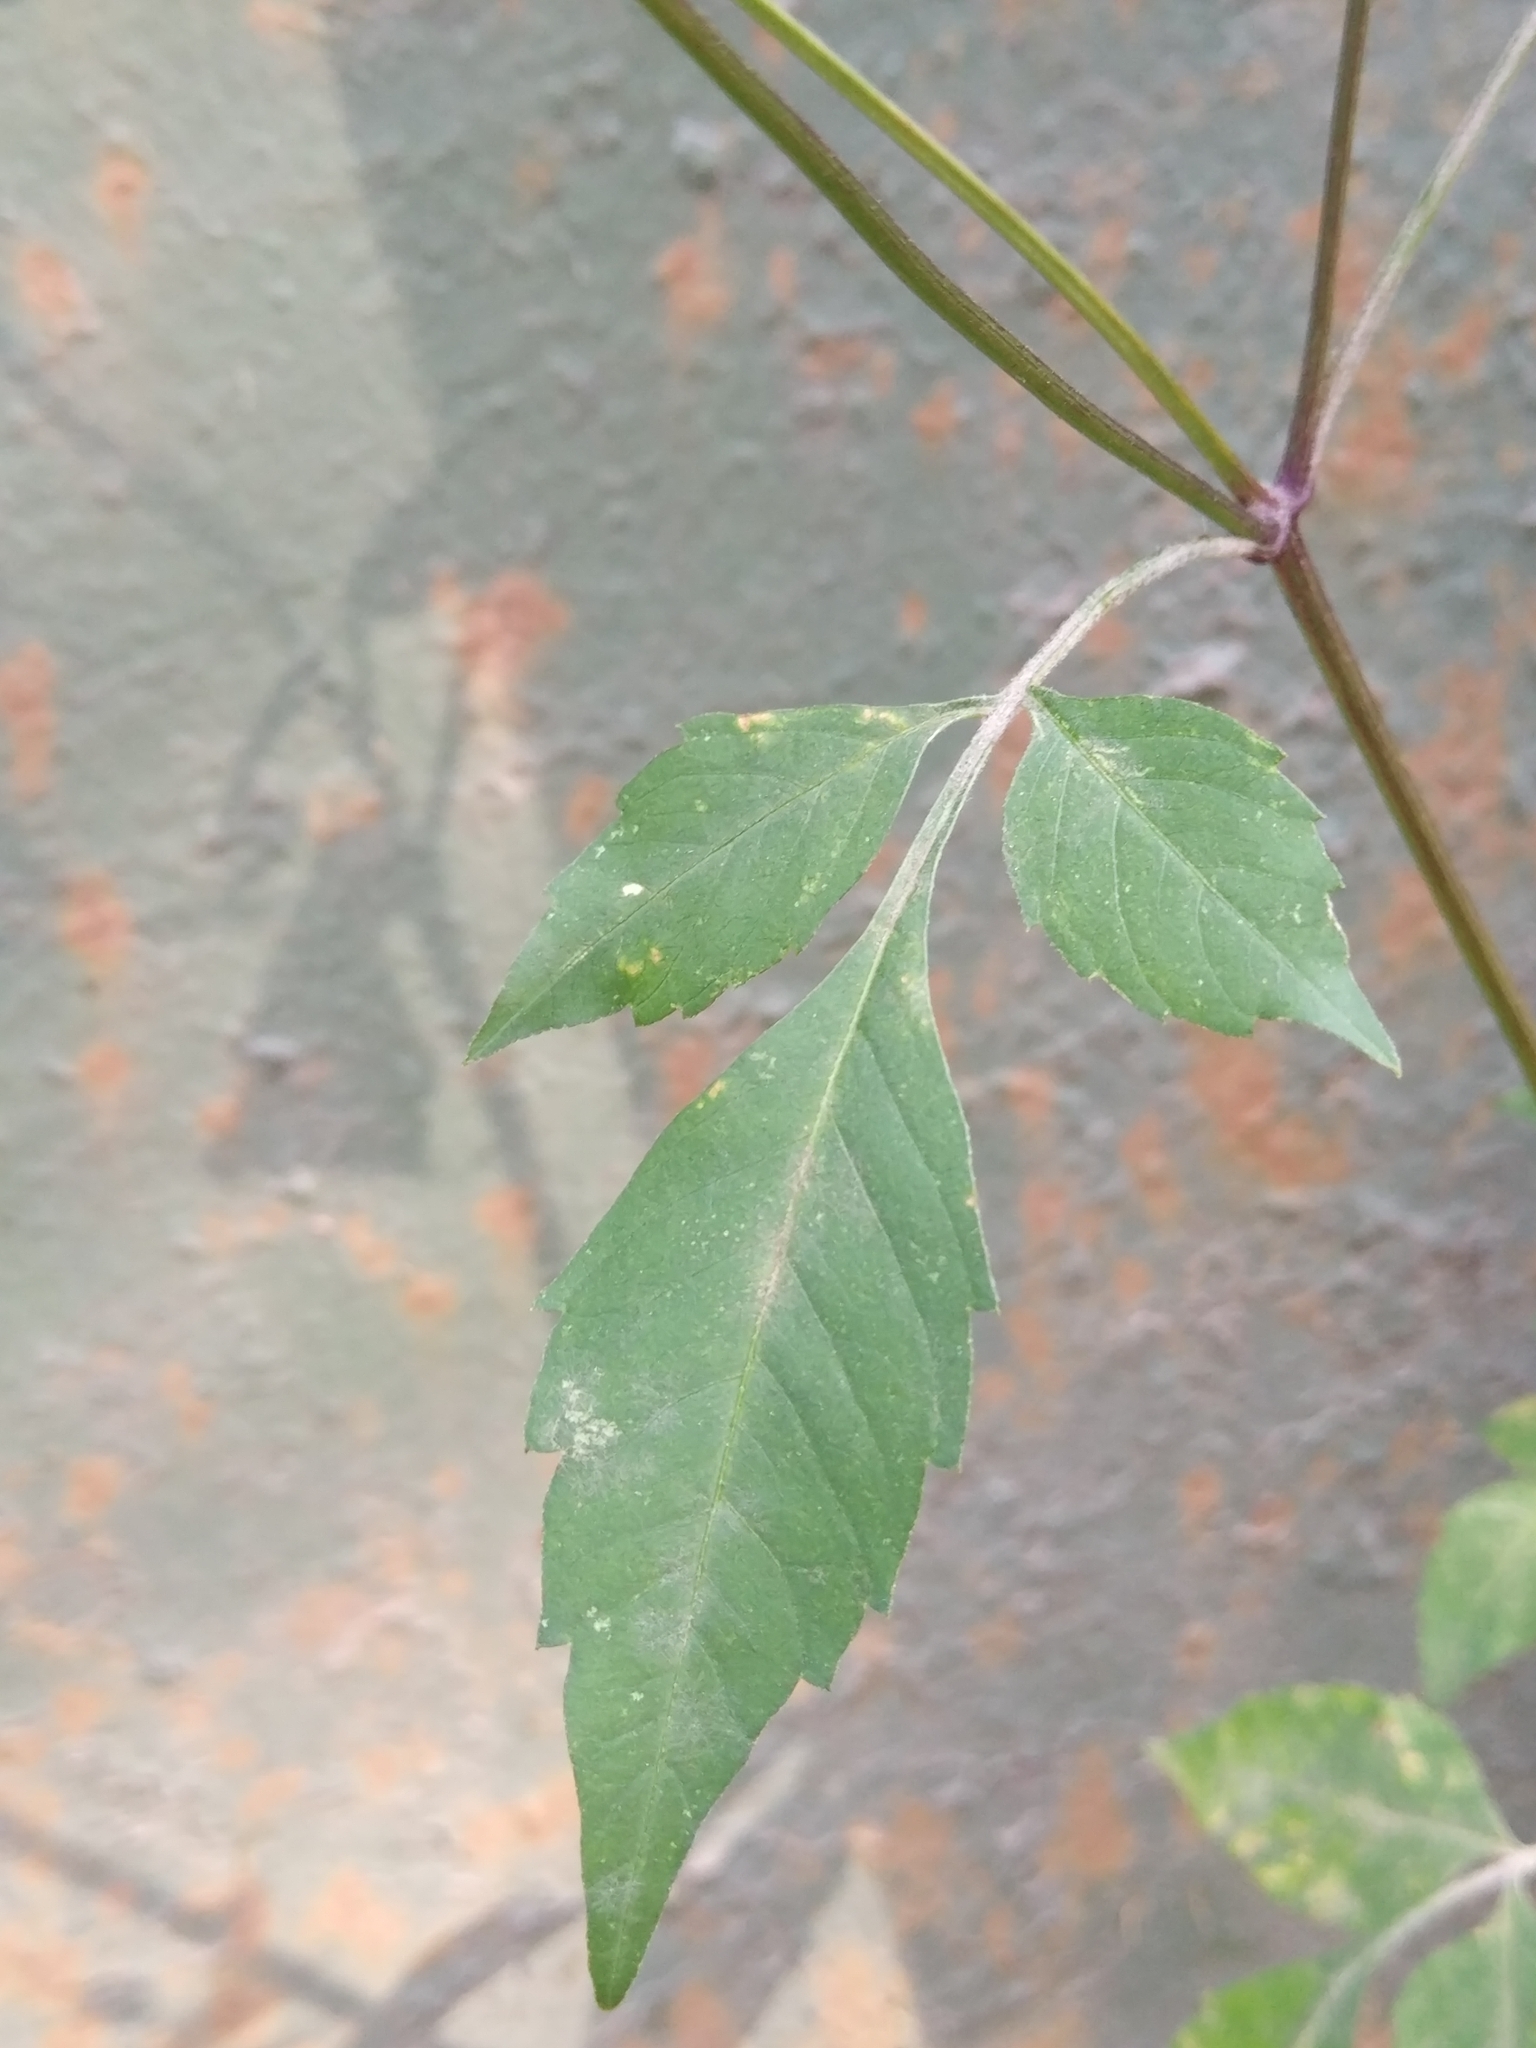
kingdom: Plantae
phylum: Tracheophyta
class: Magnoliopsida
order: Asterales
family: Asteraceae
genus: Bidens
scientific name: Bidens frondosa
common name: Beggarticks
